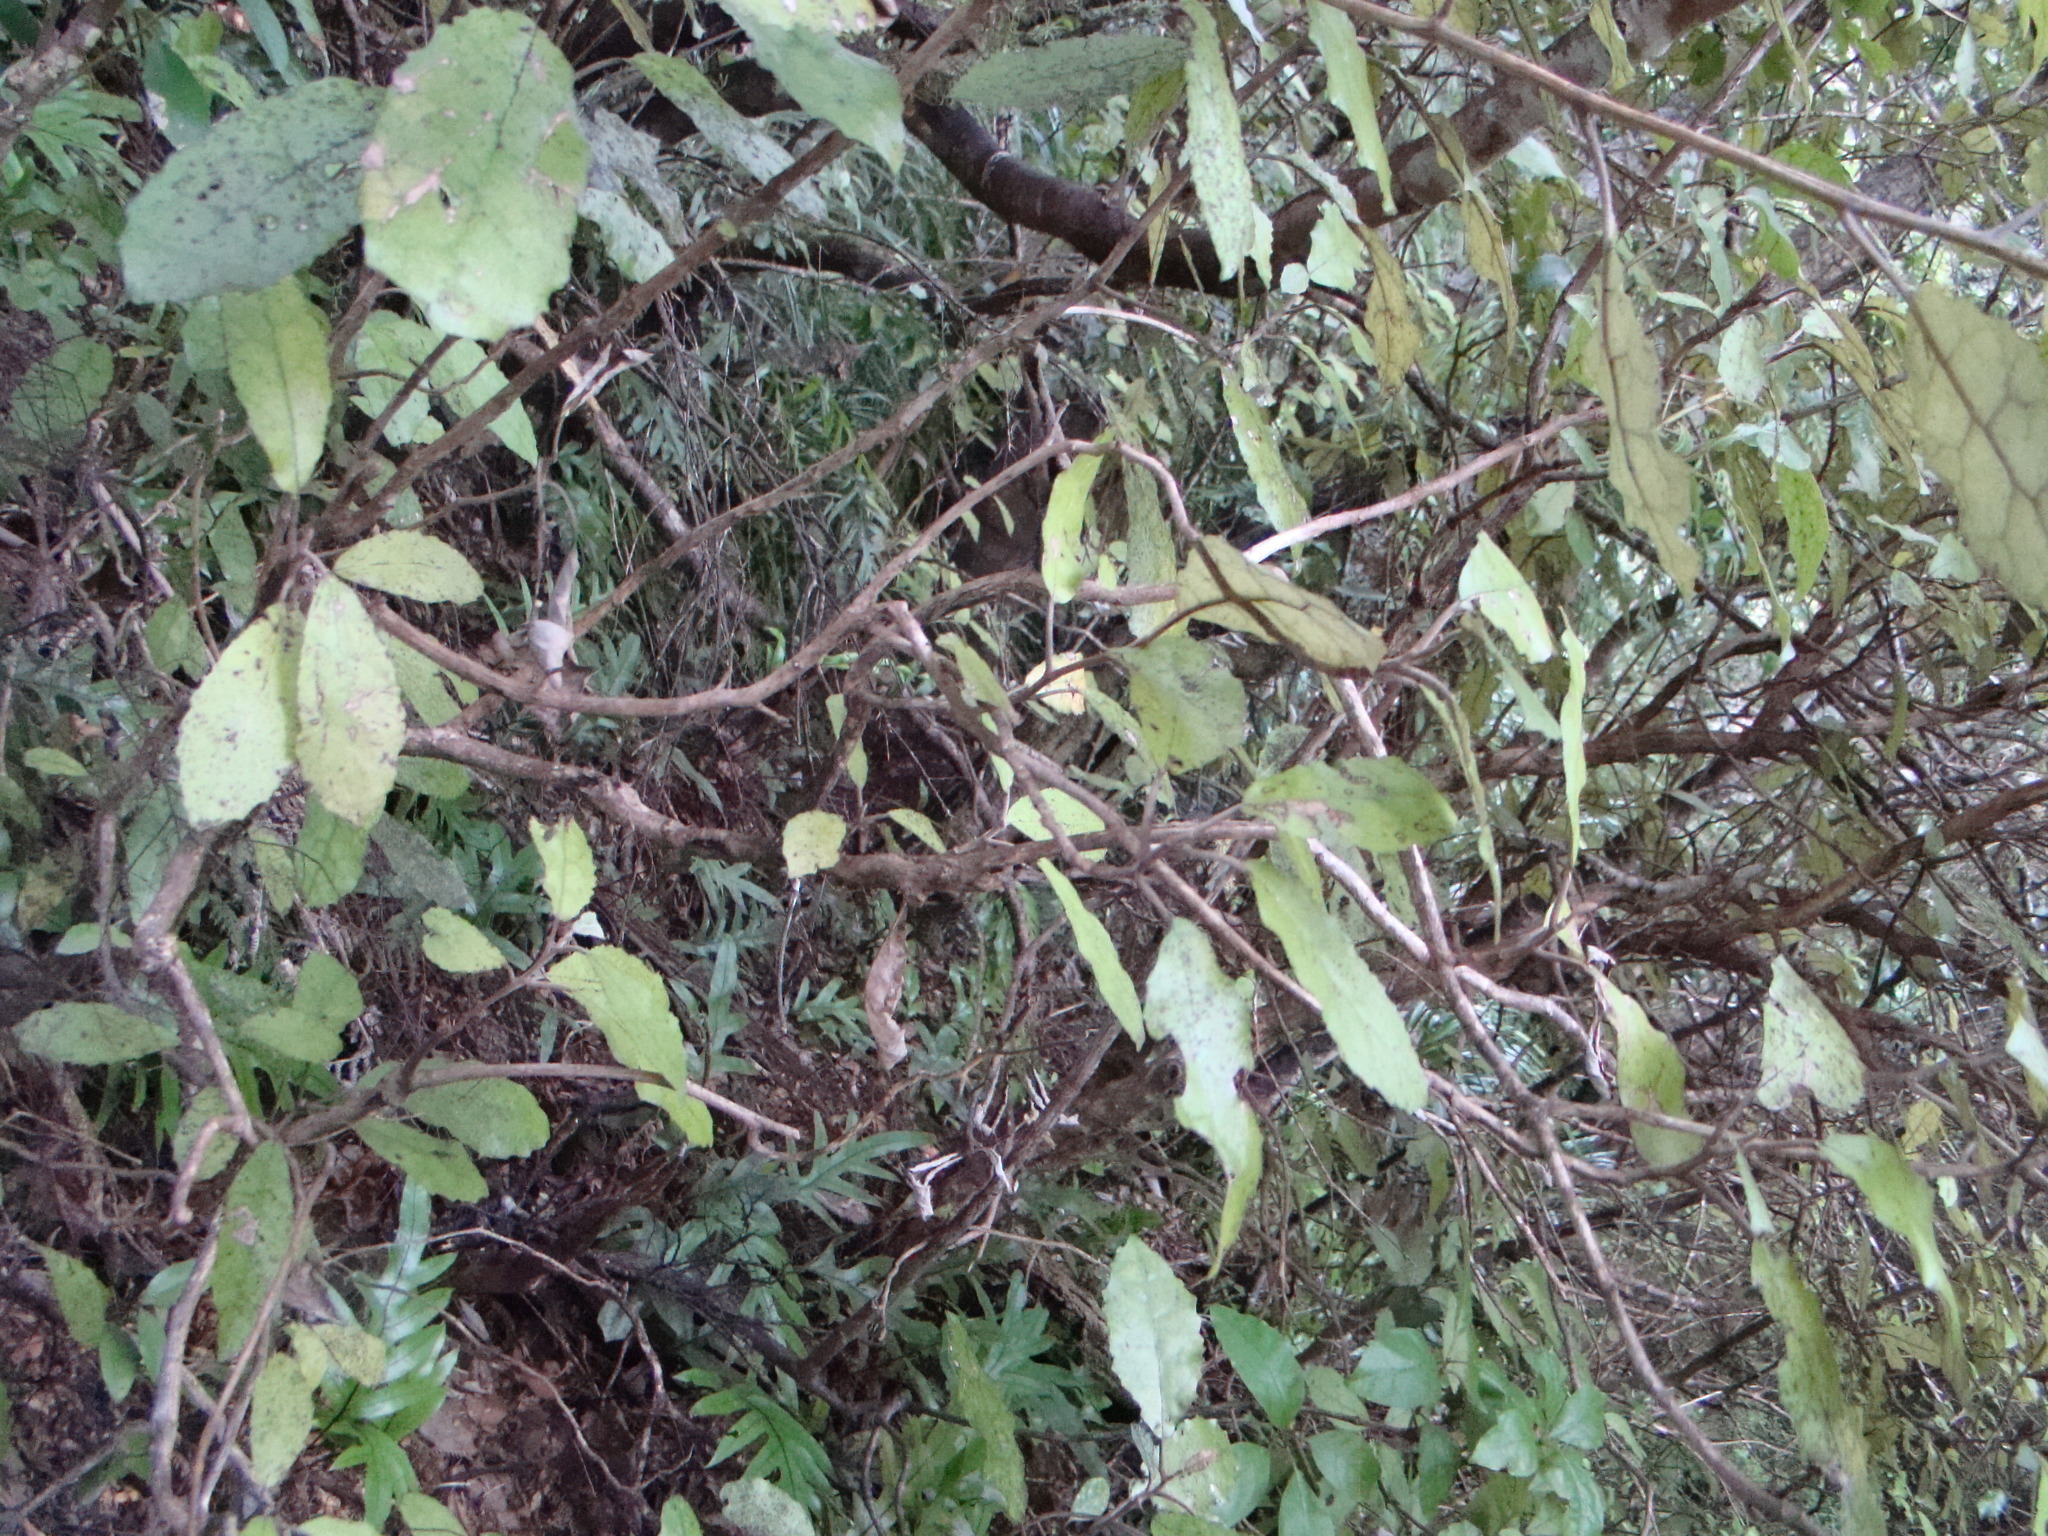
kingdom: Plantae
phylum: Tracheophyta
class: Magnoliopsida
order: Asterales
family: Asteraceae
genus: Olearia
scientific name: Olearia rani
